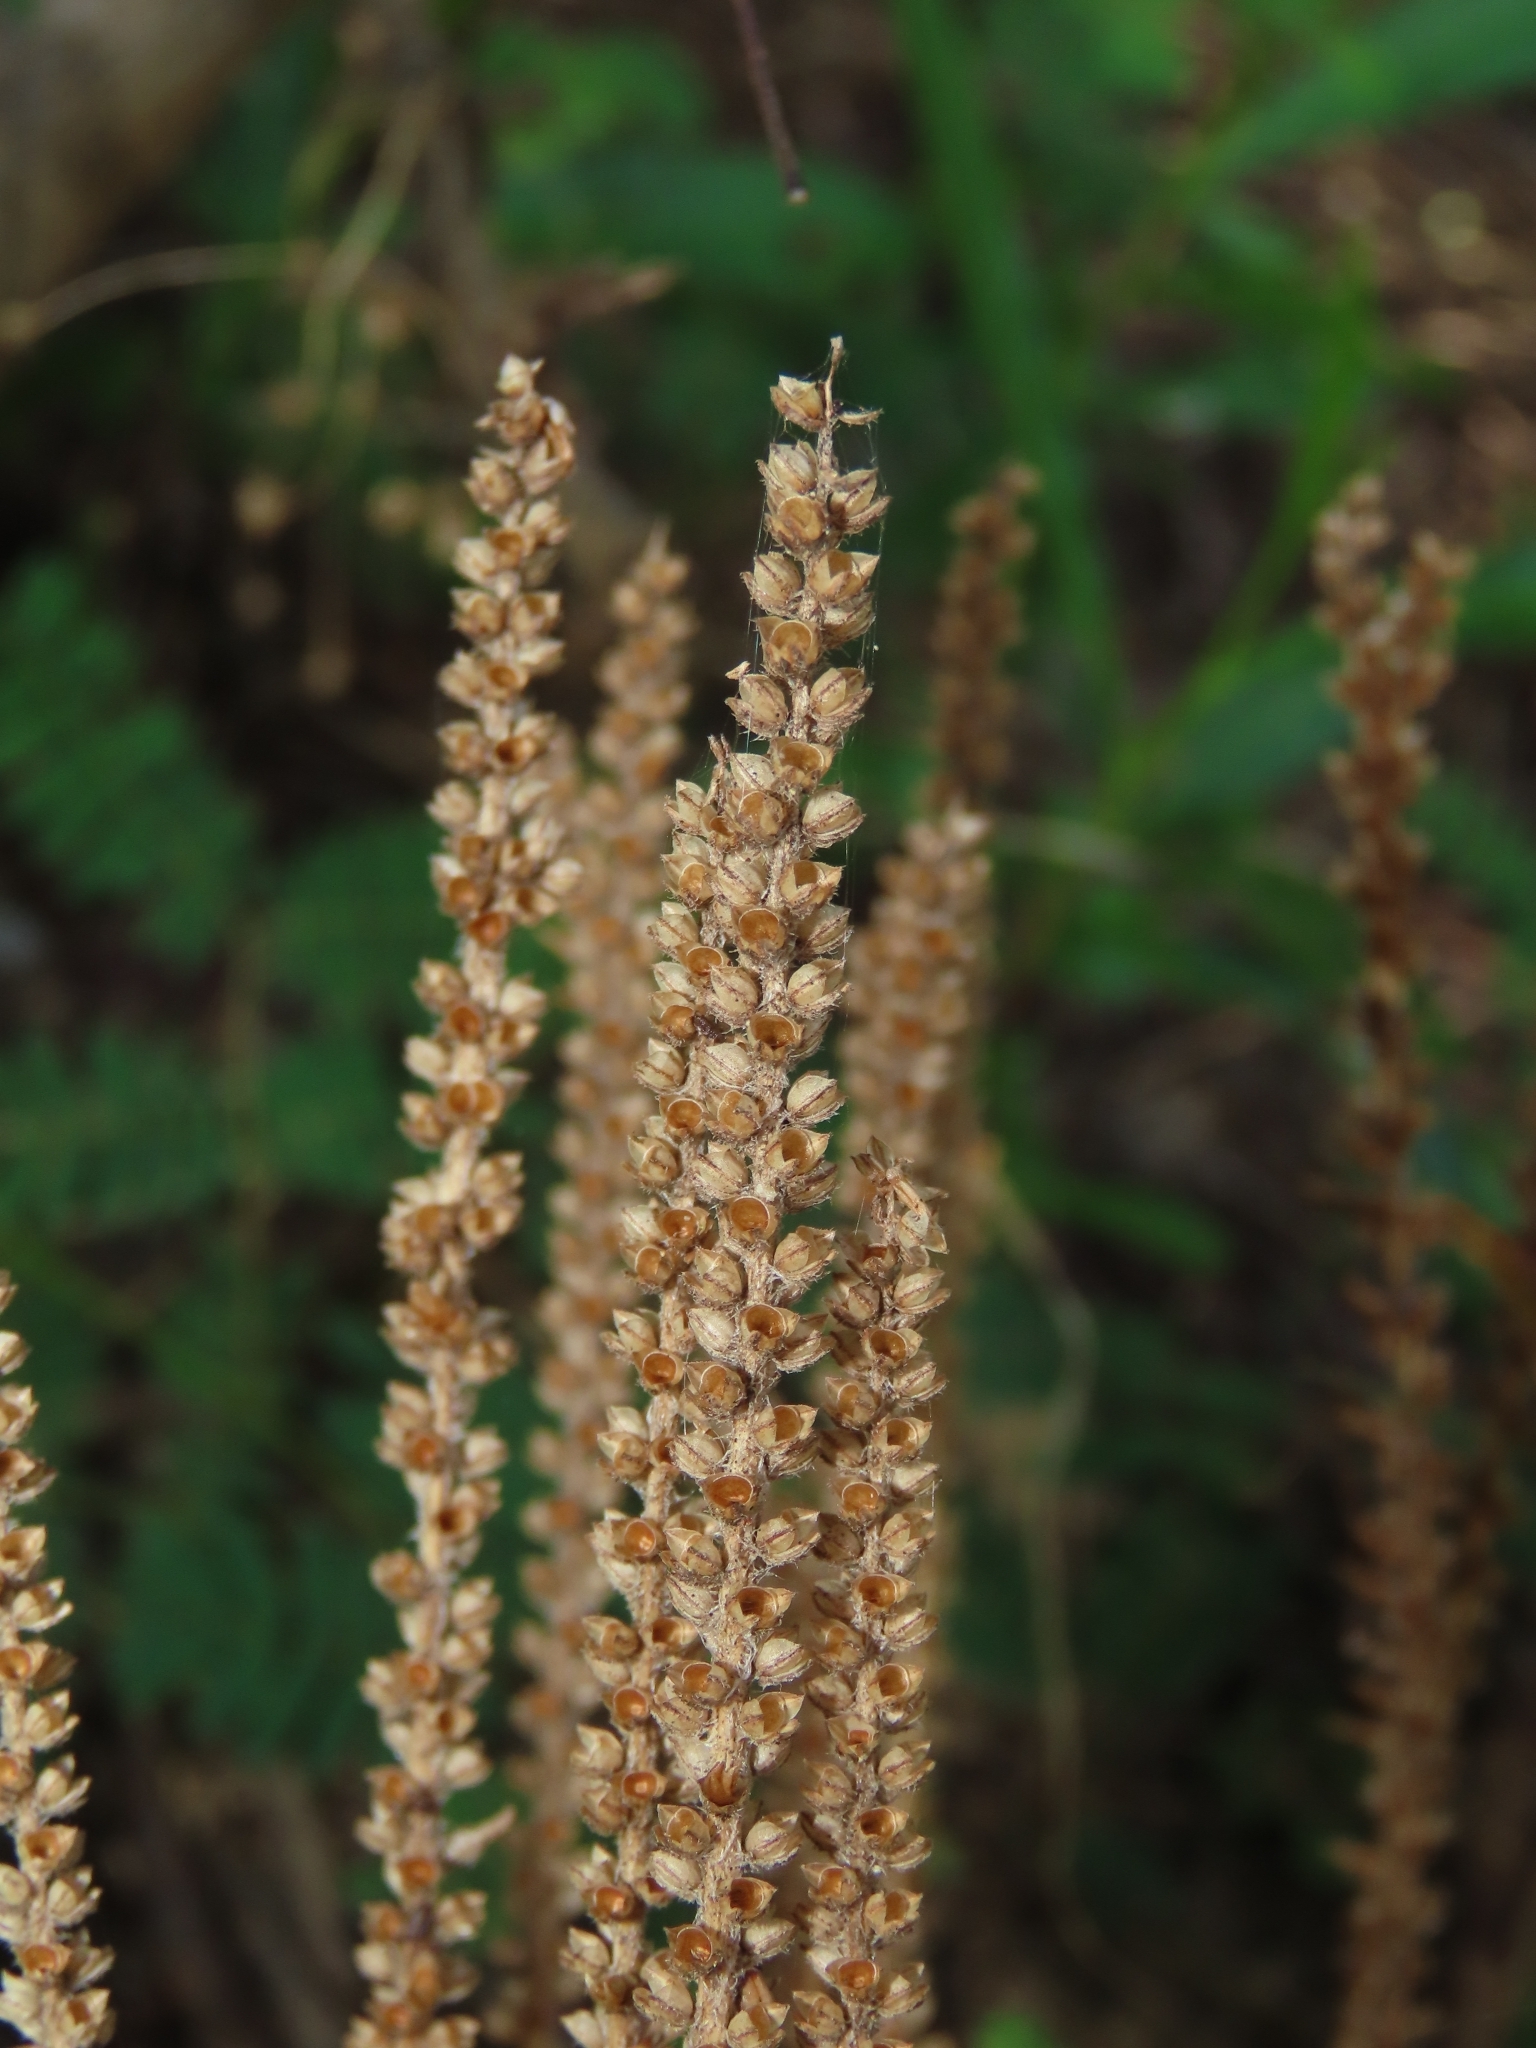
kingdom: Plantae
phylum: Tracheophyta
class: Liliopsida
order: Dioscoreales
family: Nartheciaceae
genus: Aletris
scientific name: Aletris spicata
